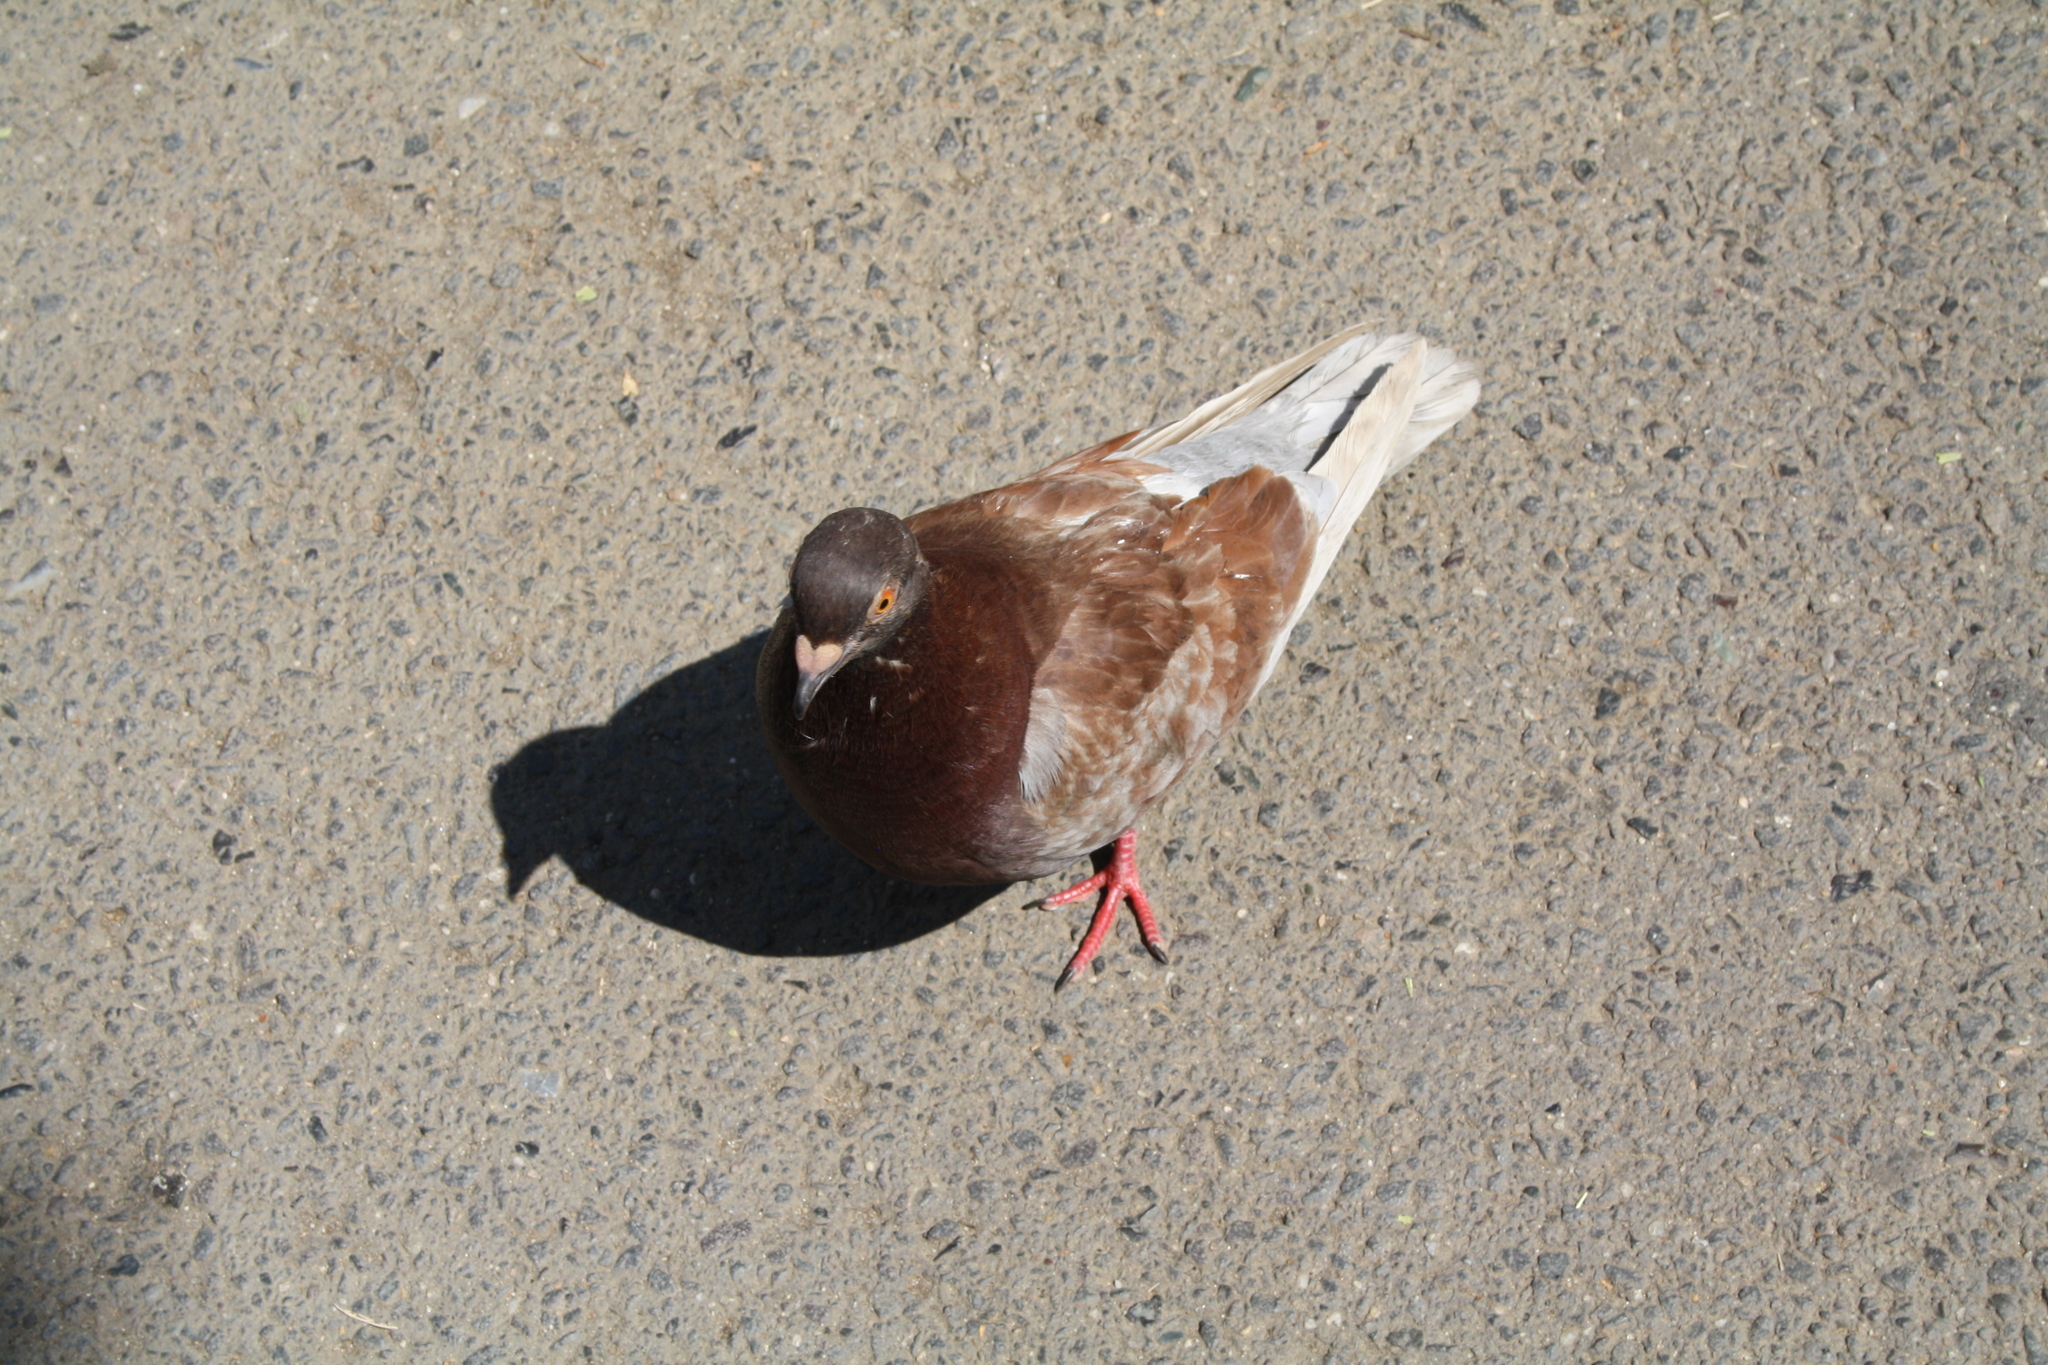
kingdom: Animalia
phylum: Chordata
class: Aves
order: Columbiformes
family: Columbidae
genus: Columba
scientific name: Columba livia
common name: Rock pigeon
